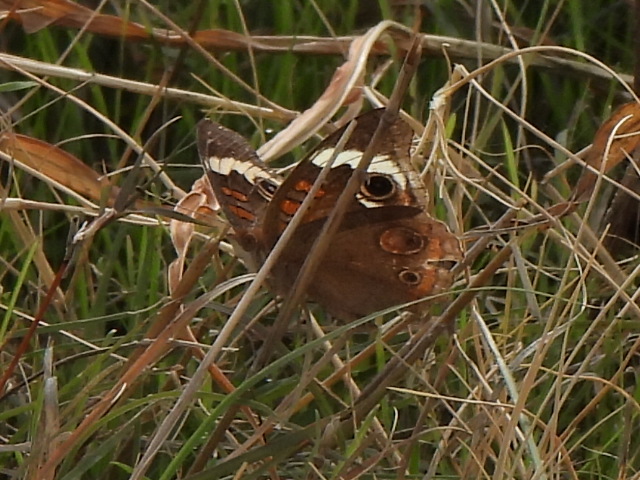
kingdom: Animalia
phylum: Arthropoda
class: Insecta
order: Lepidoptera
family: Nymphalidae
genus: Junonia
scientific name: Junonia coenia
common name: Common buckeye
